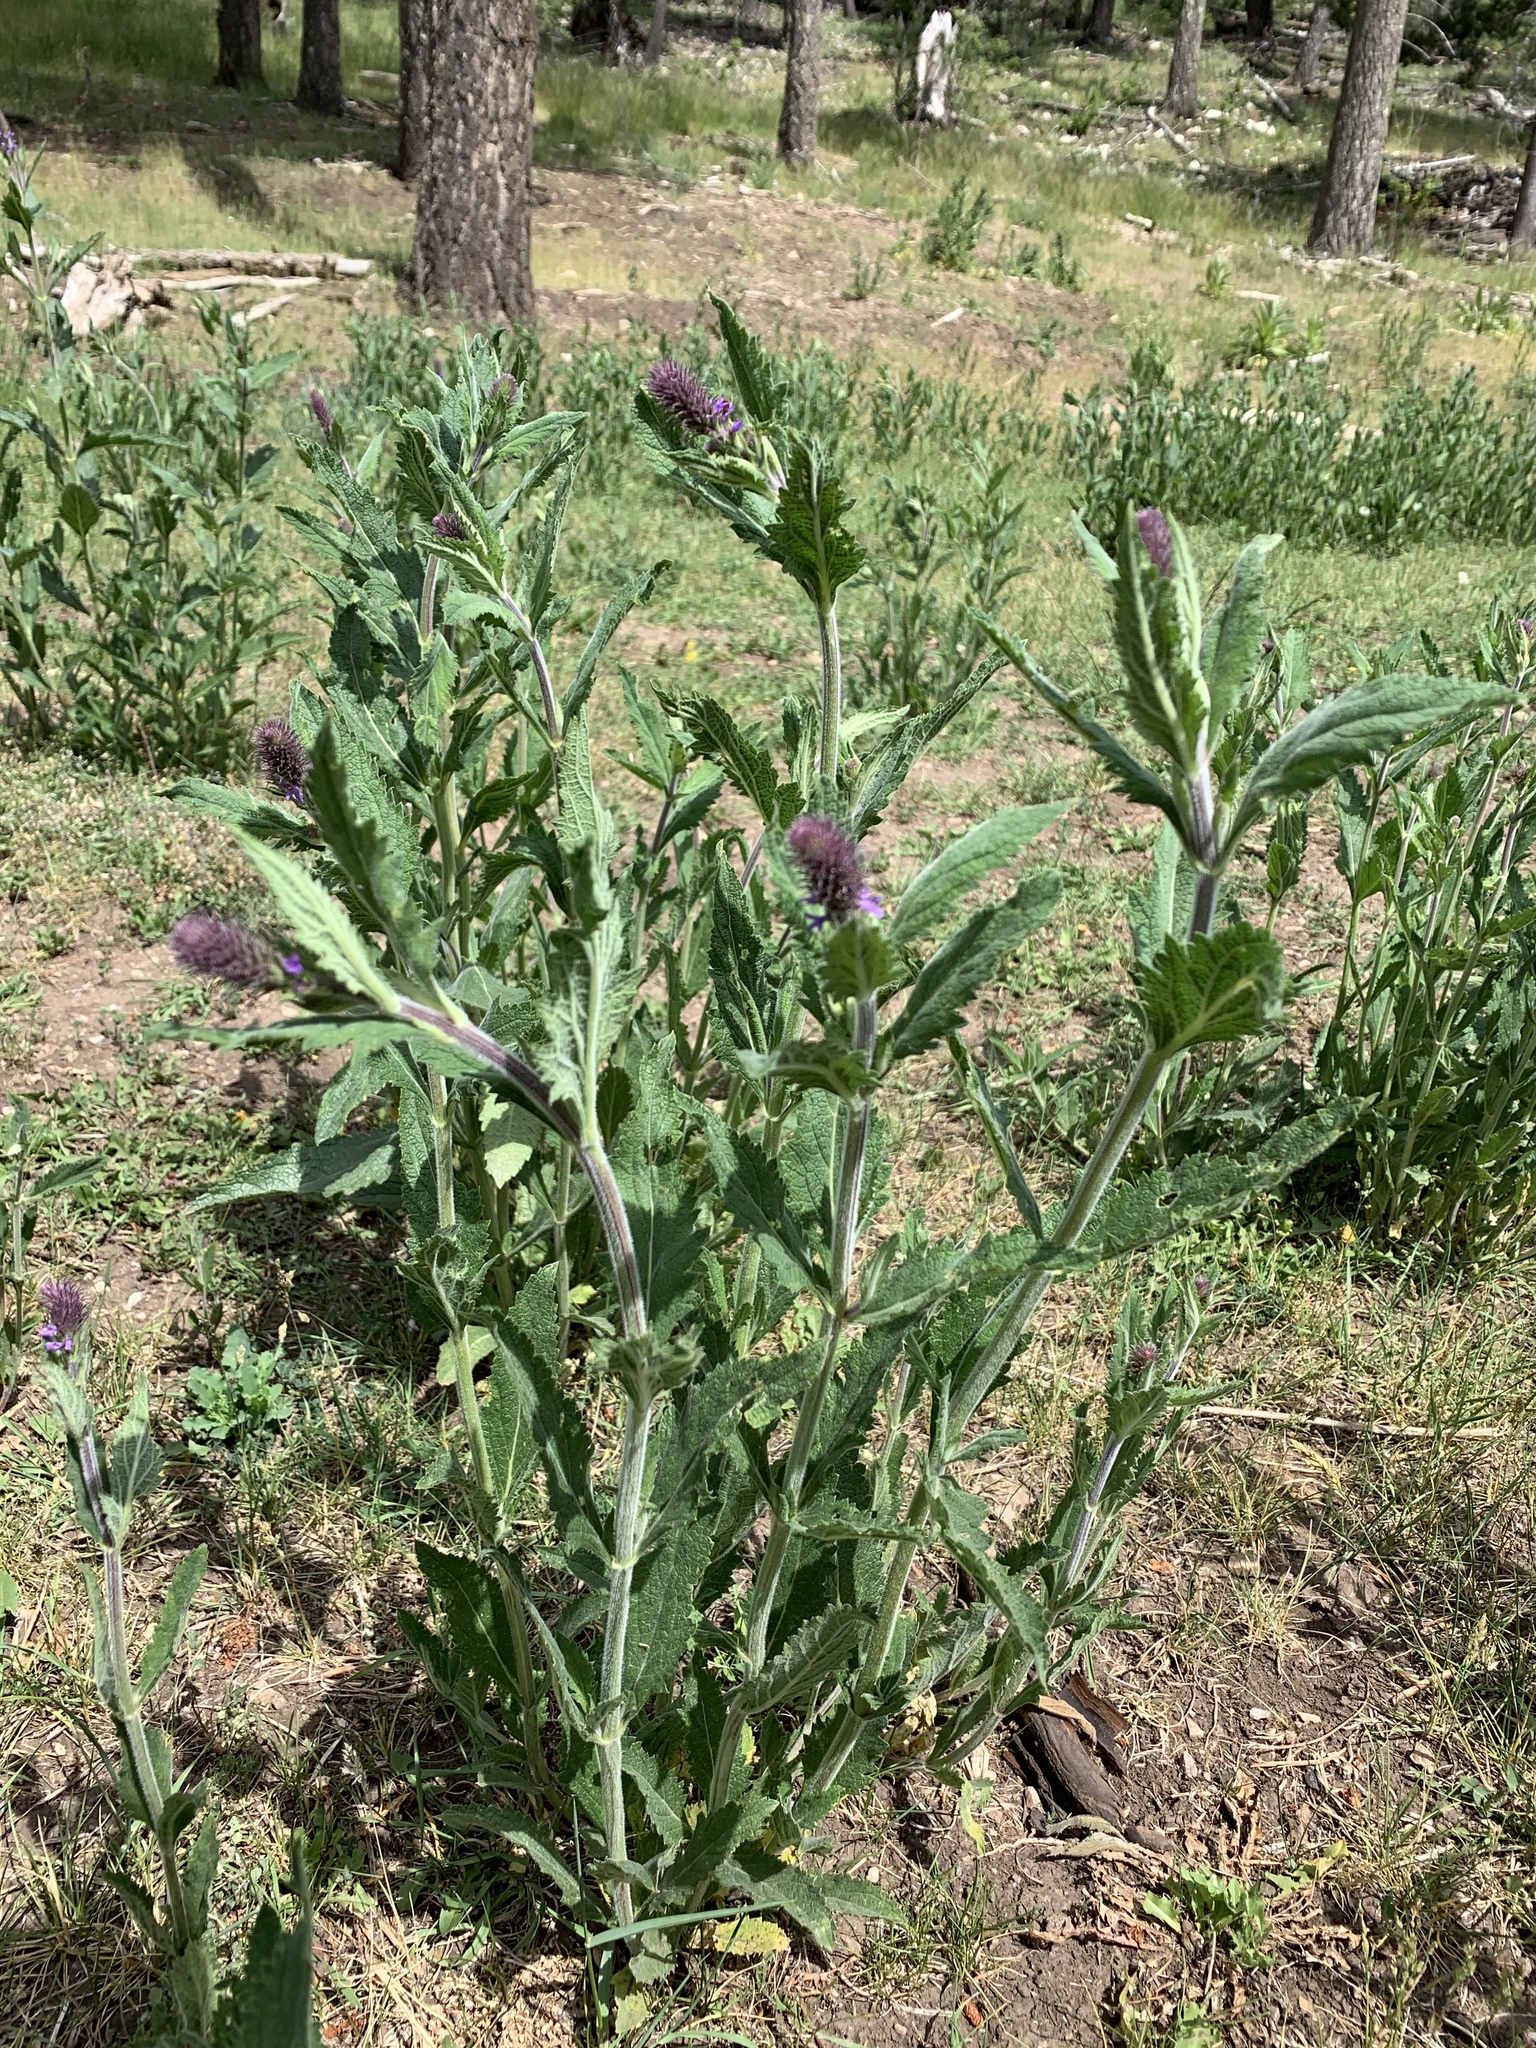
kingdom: Plantae
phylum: Tracheophyta
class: Magnoliopsida
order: Lamiales
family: Verbenaceae
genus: Verbena
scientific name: Verbena macdougalii
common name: New mexico vervain
